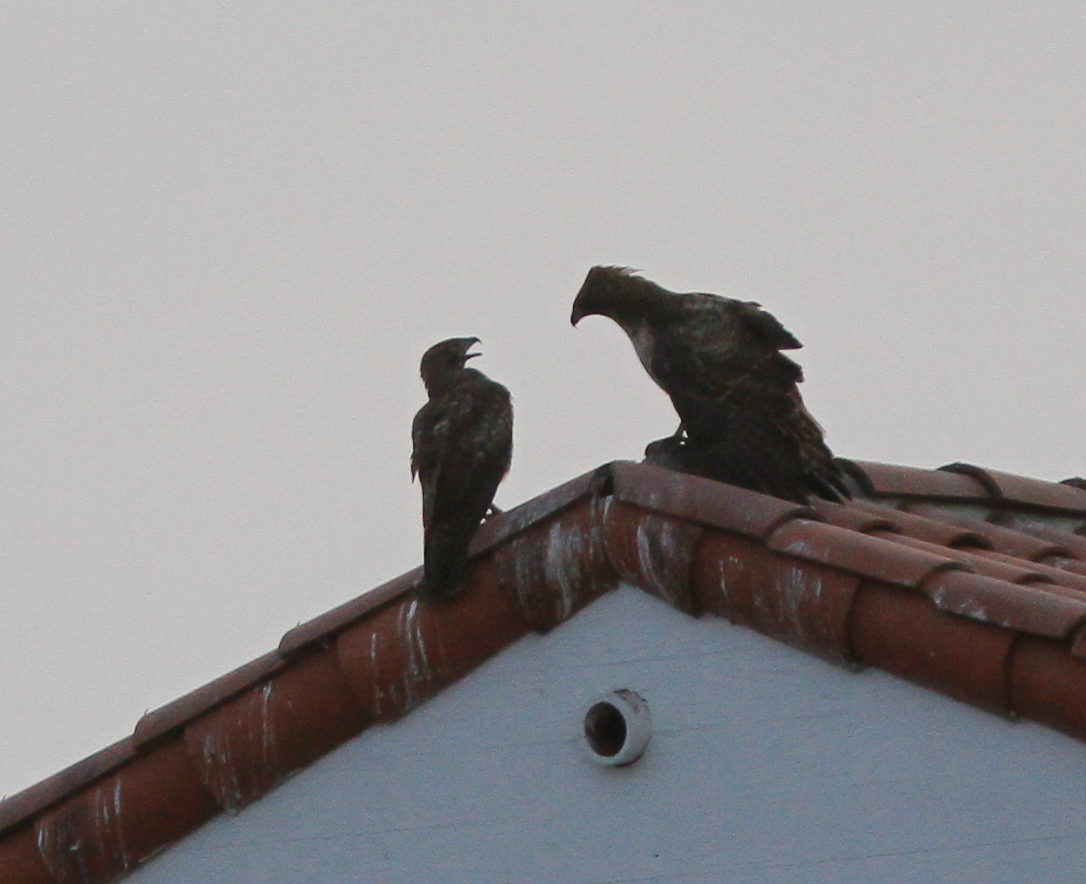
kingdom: Animalia
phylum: Chordata
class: Aves
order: Accipitriformes
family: Accipitridae
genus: Buteo
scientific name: Buteo jamaicensis
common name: Red-tailed hawk
